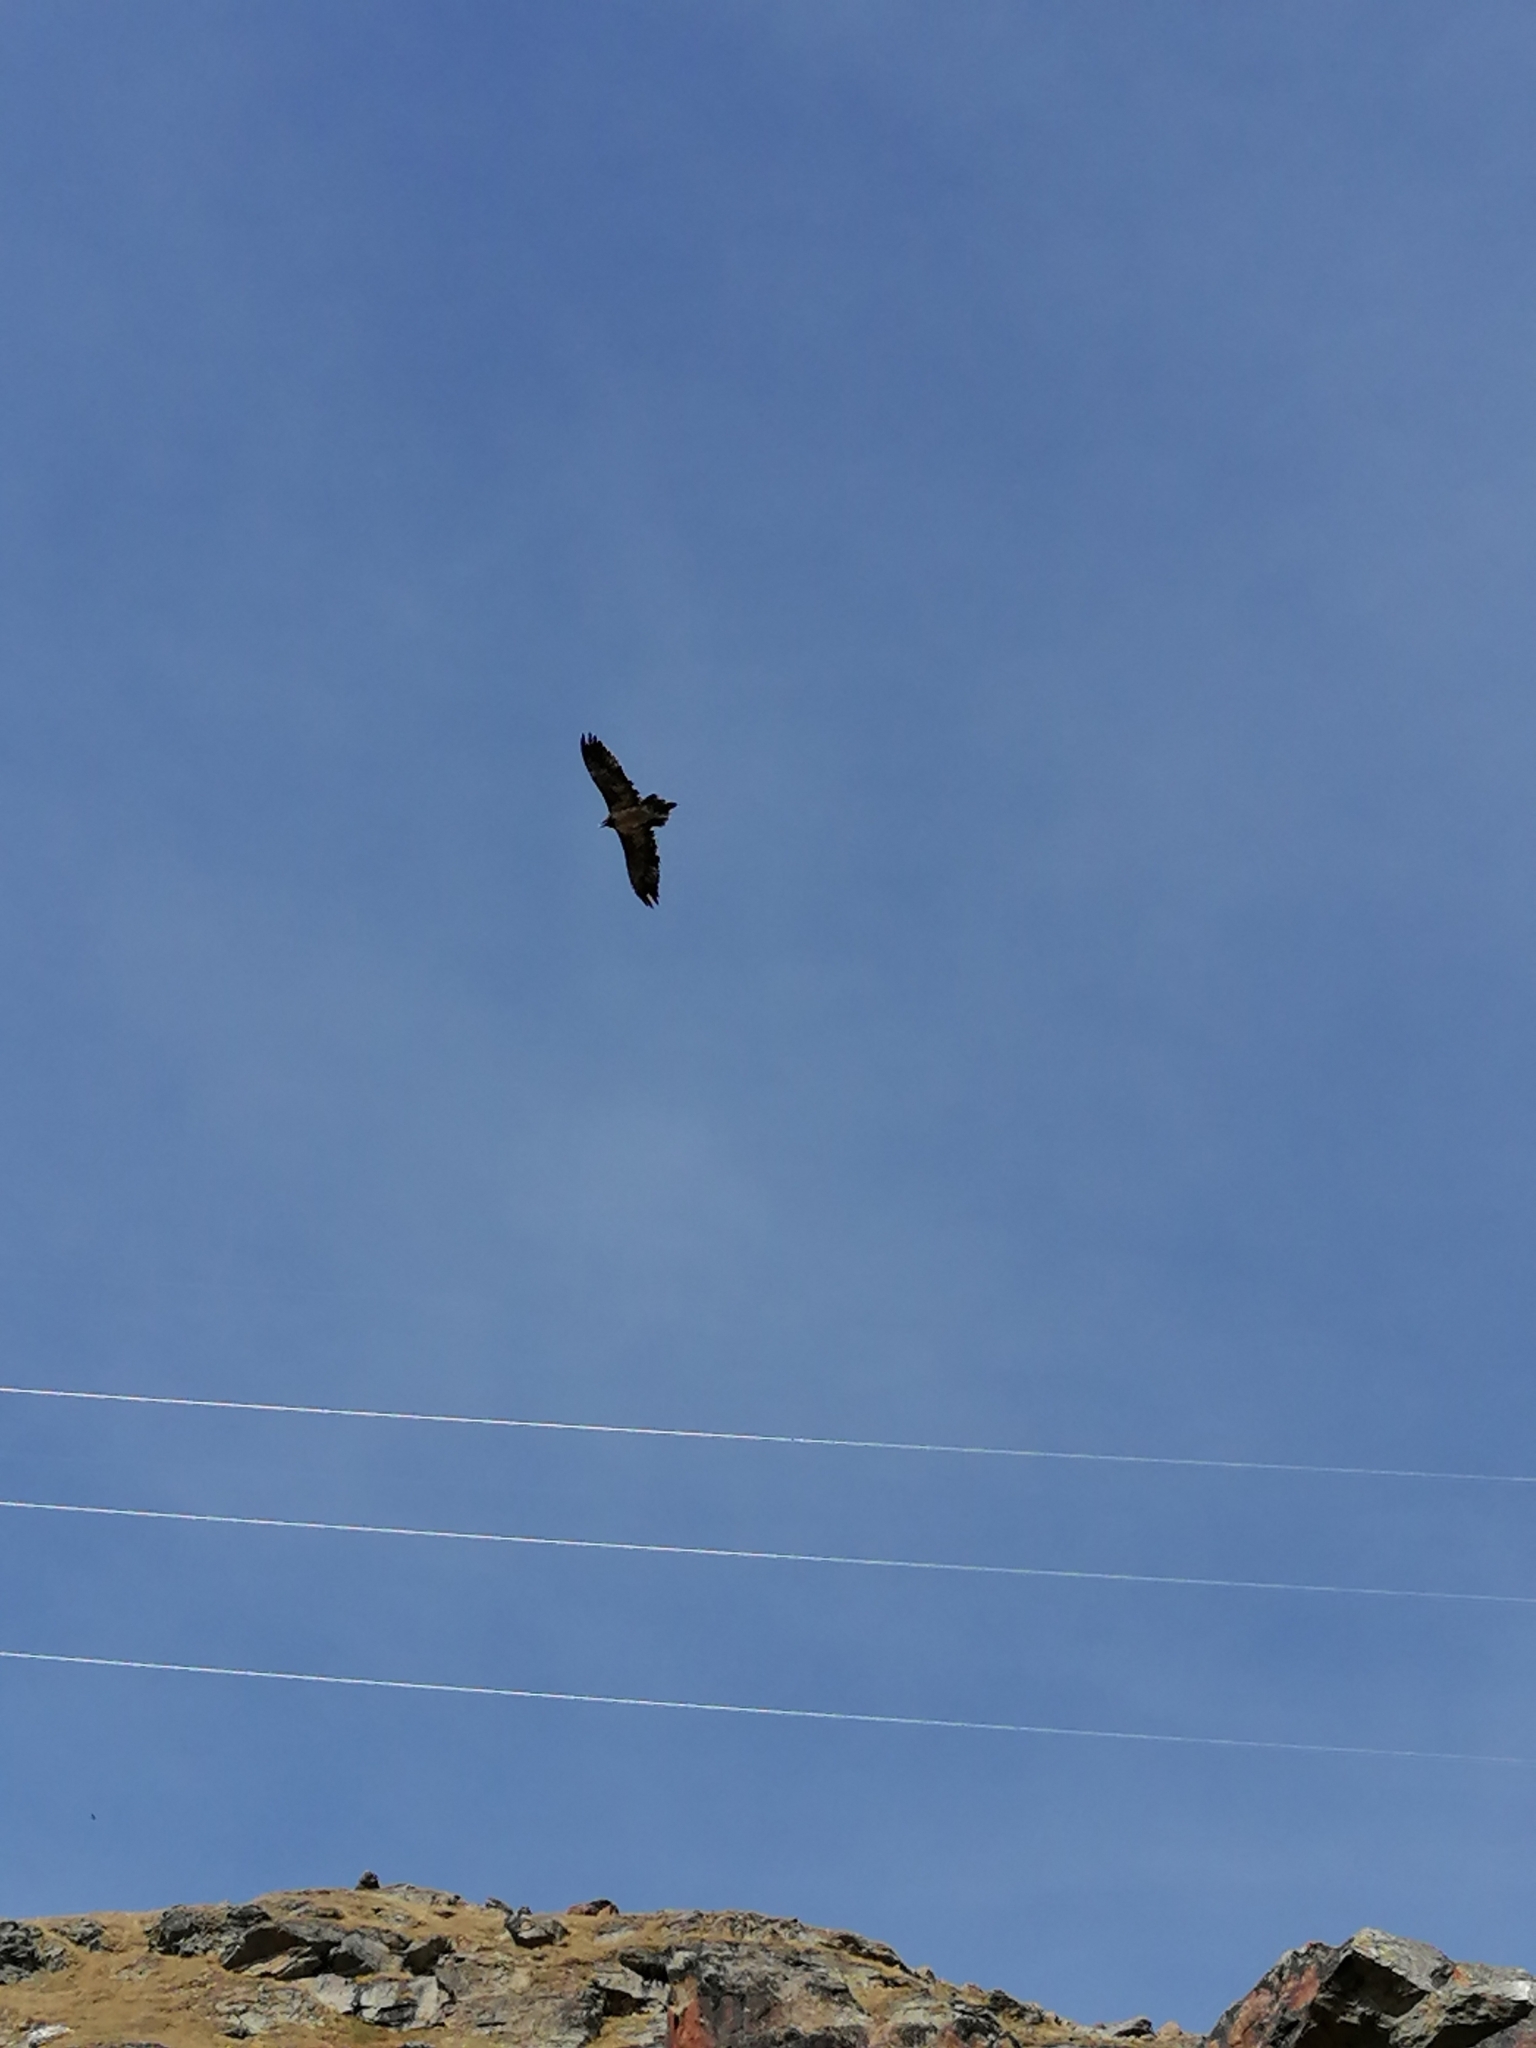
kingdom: Animalia
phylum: Chordata
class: Aves
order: Accipitriformes
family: Accipitridae
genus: Gypaetus
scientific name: Gypaetus barbatus
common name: Bearded vulture
